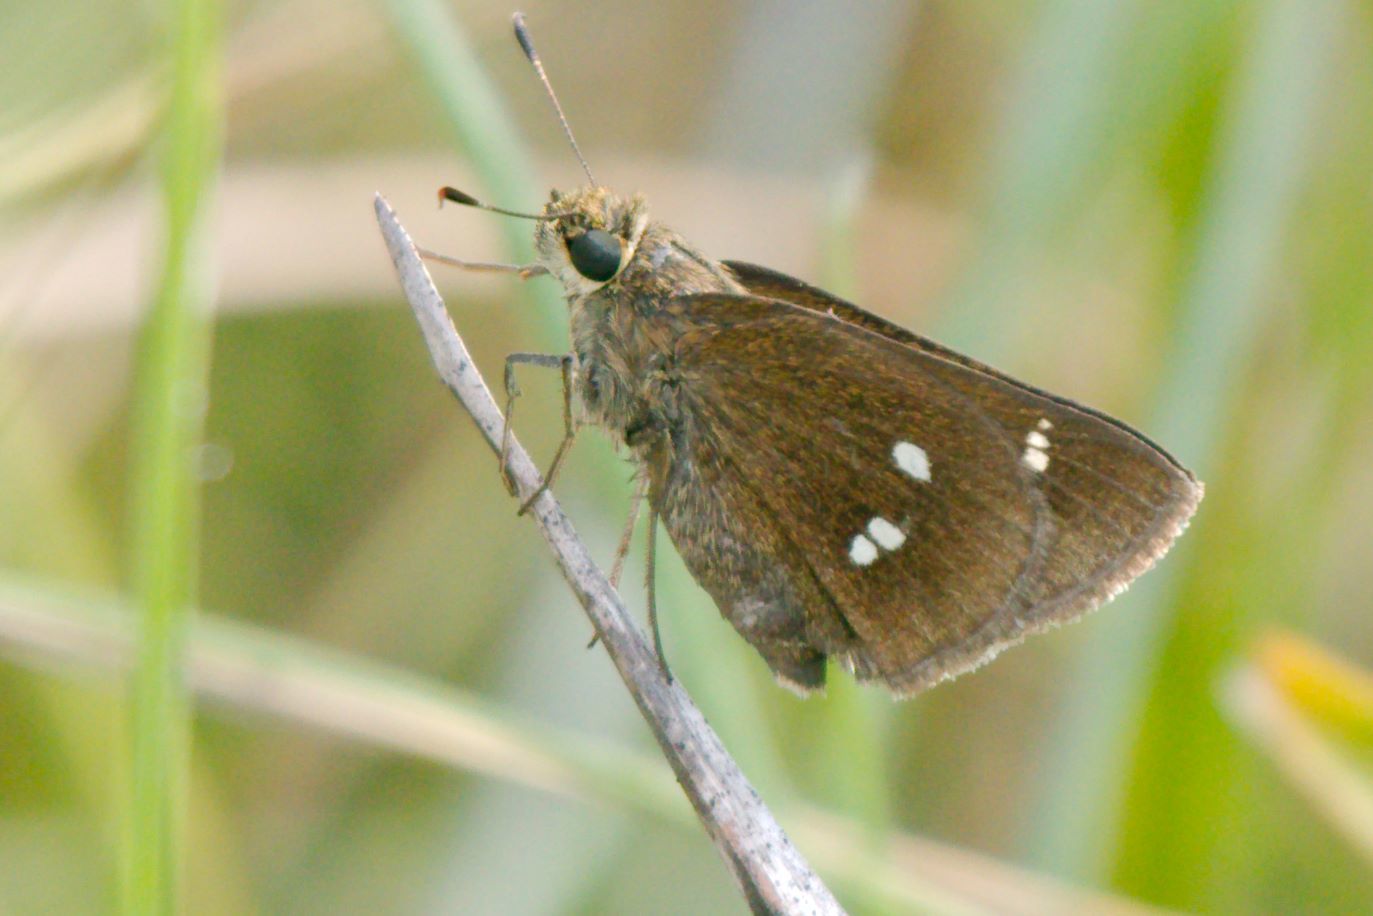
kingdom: Animalia
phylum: Arthropoda
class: Insecta
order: Lepidoptera
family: Hesperiidae
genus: Oligoria
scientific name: Oligoria maculata
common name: Twin-spot skipper
